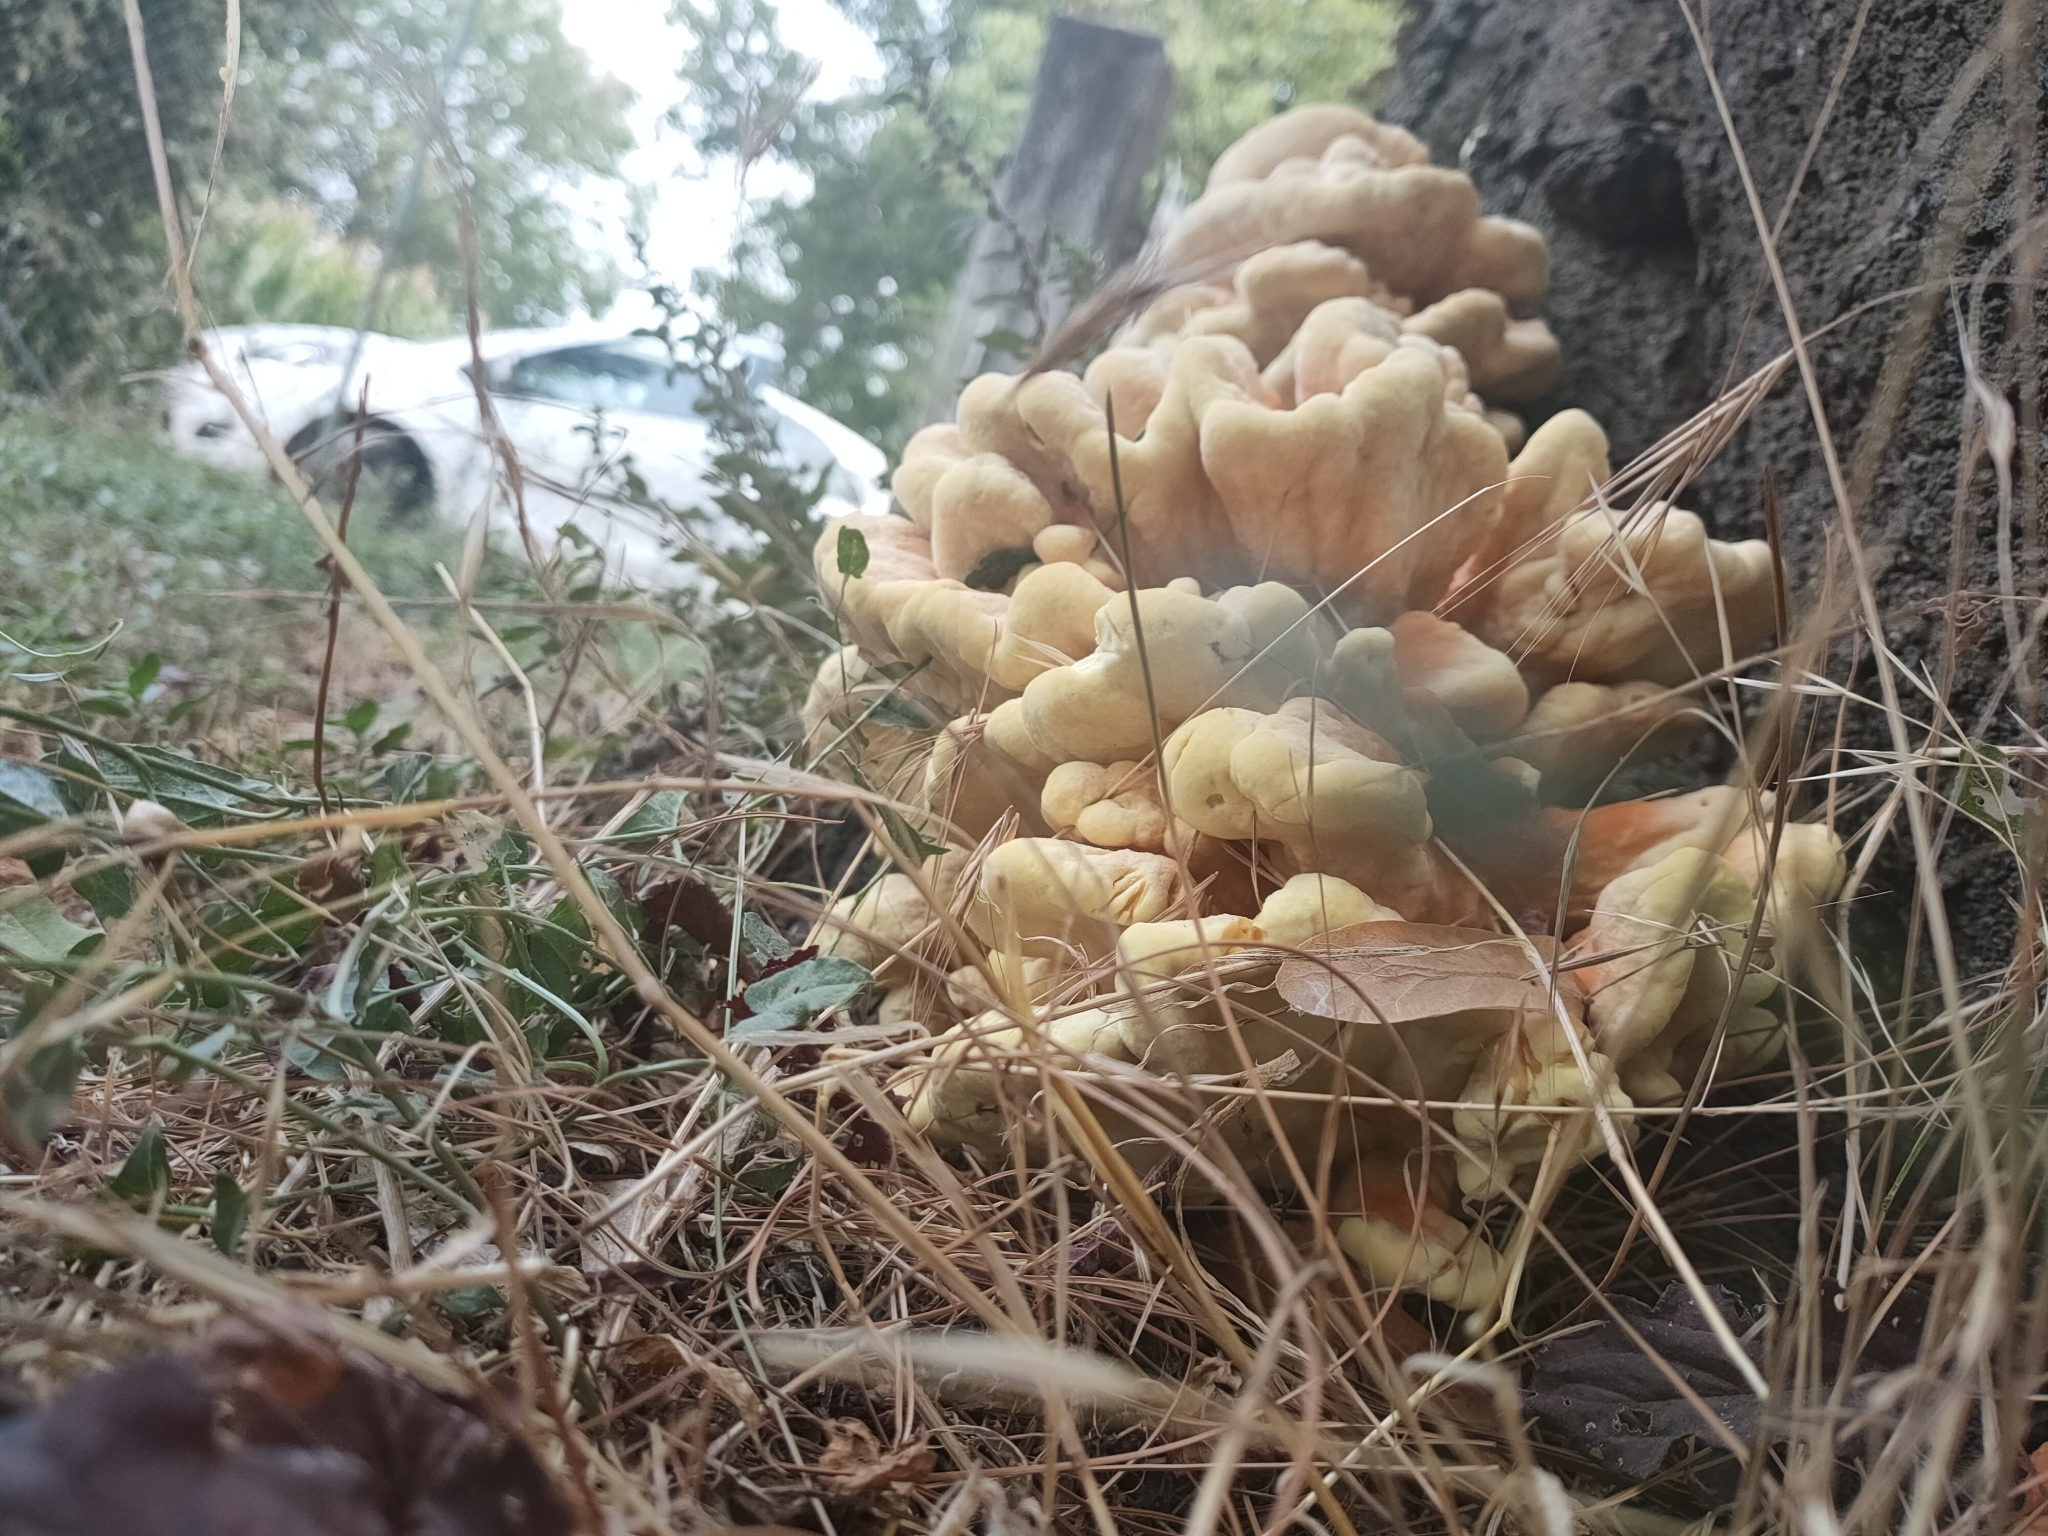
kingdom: Fungi
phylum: Basidiomycota
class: Agaricomycetes
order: Polyporales
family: Laetiporaceae
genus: Laetiporus
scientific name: Laetiporus sulphureus
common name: Chicken of the woods
